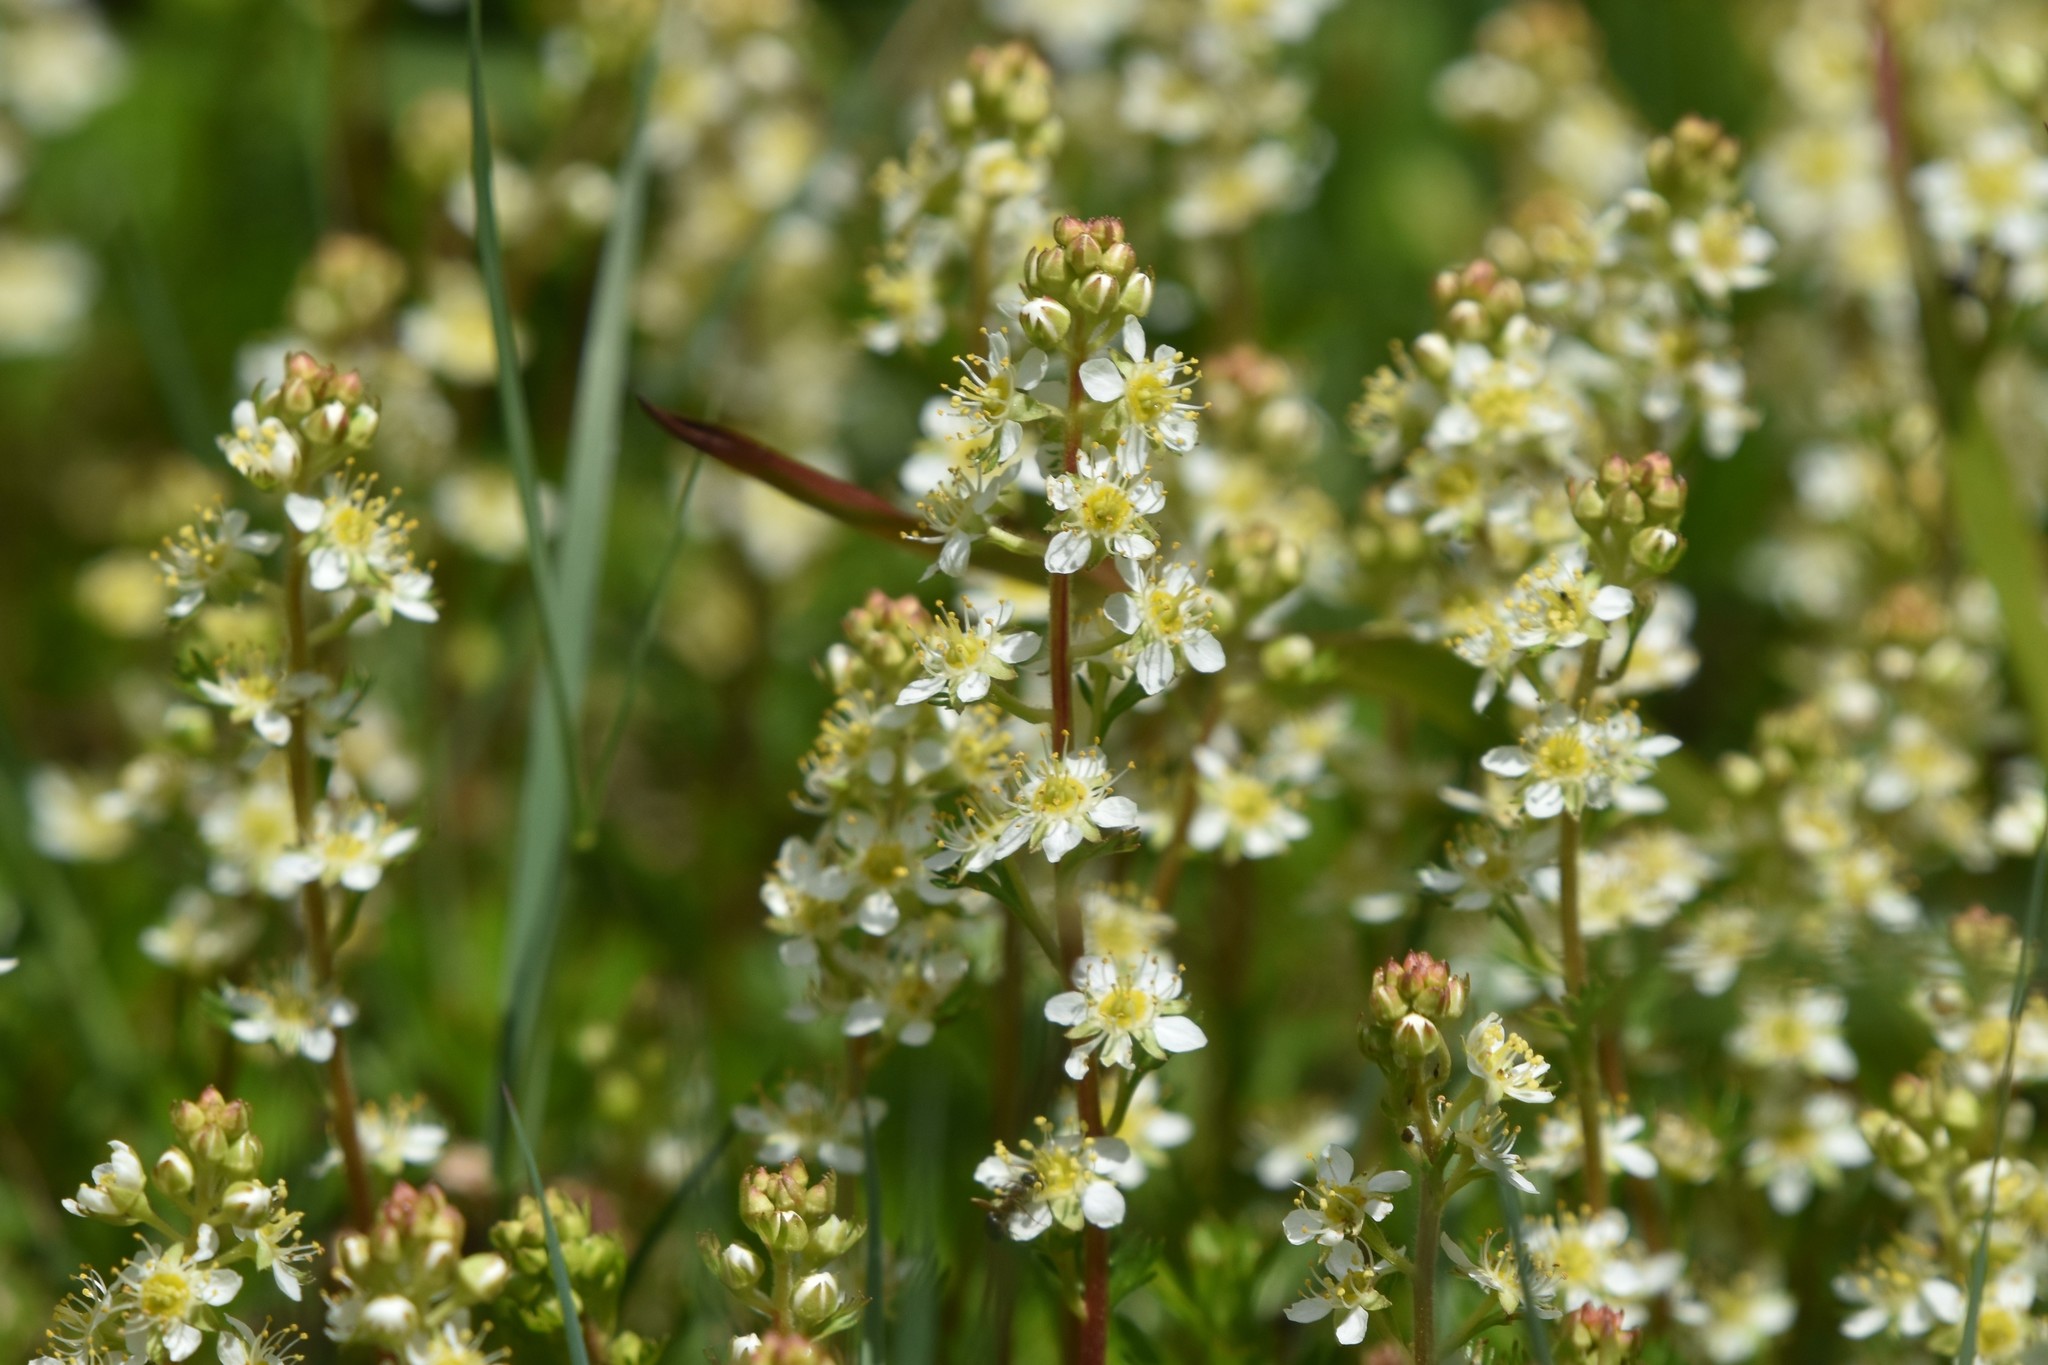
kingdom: Plantae
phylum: Tracheophyta
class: Magnoliopsida
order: Rosales
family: Rosaceae
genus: Luetkea
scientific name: Luetkea pectinata
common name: Partridgefoot
